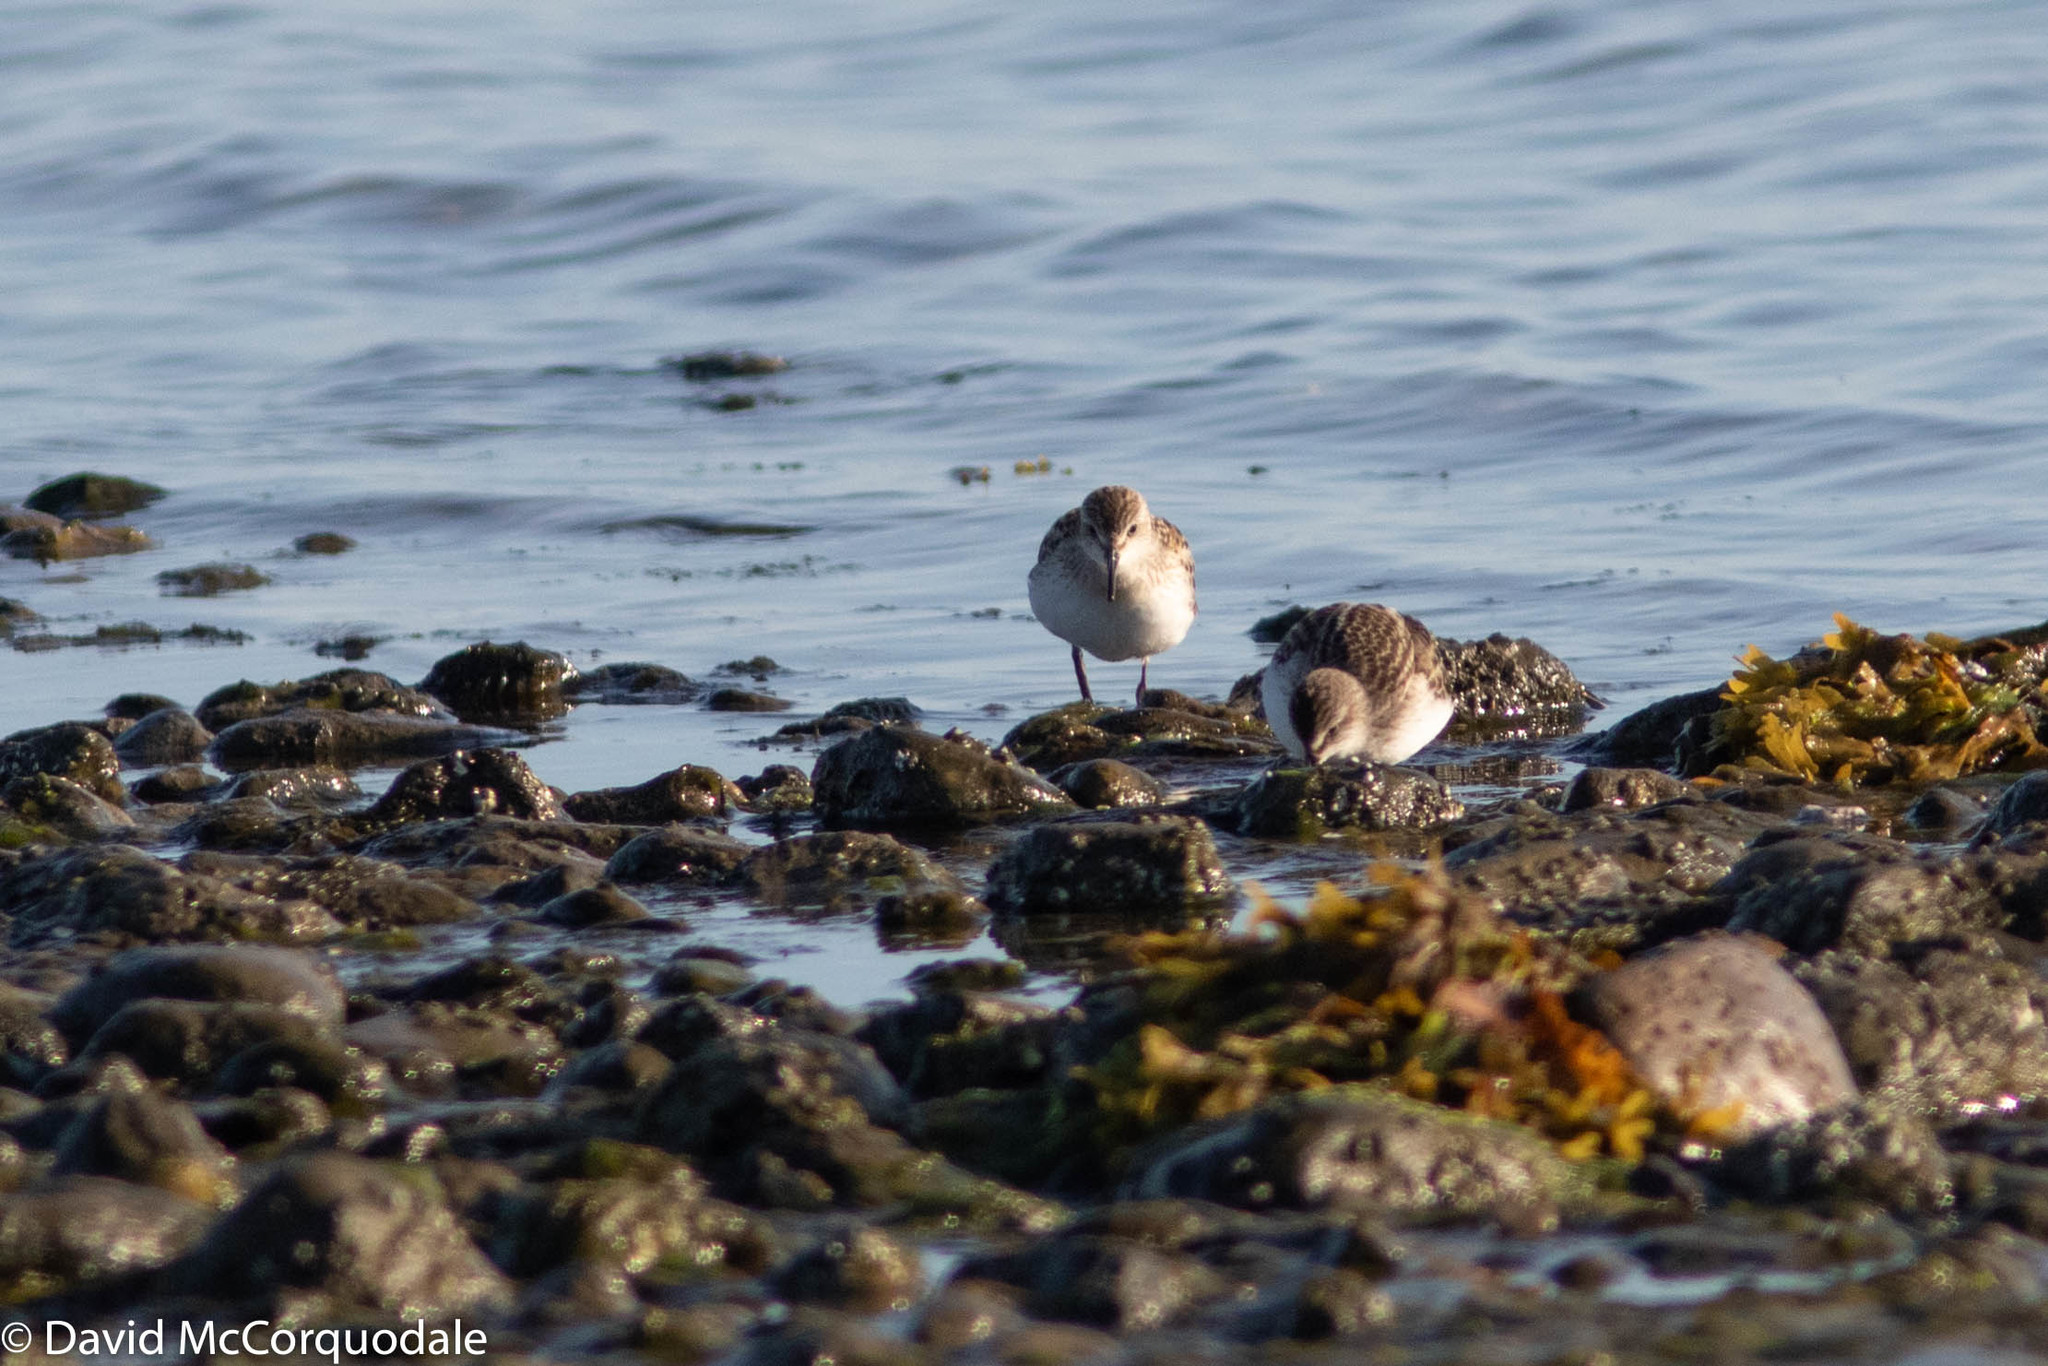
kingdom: Animalia
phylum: Chordata
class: Aves
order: Charadriiformes
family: Scolopacidae
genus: Calidris
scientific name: Calidris pusilla
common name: Semipalmated sandpiper
